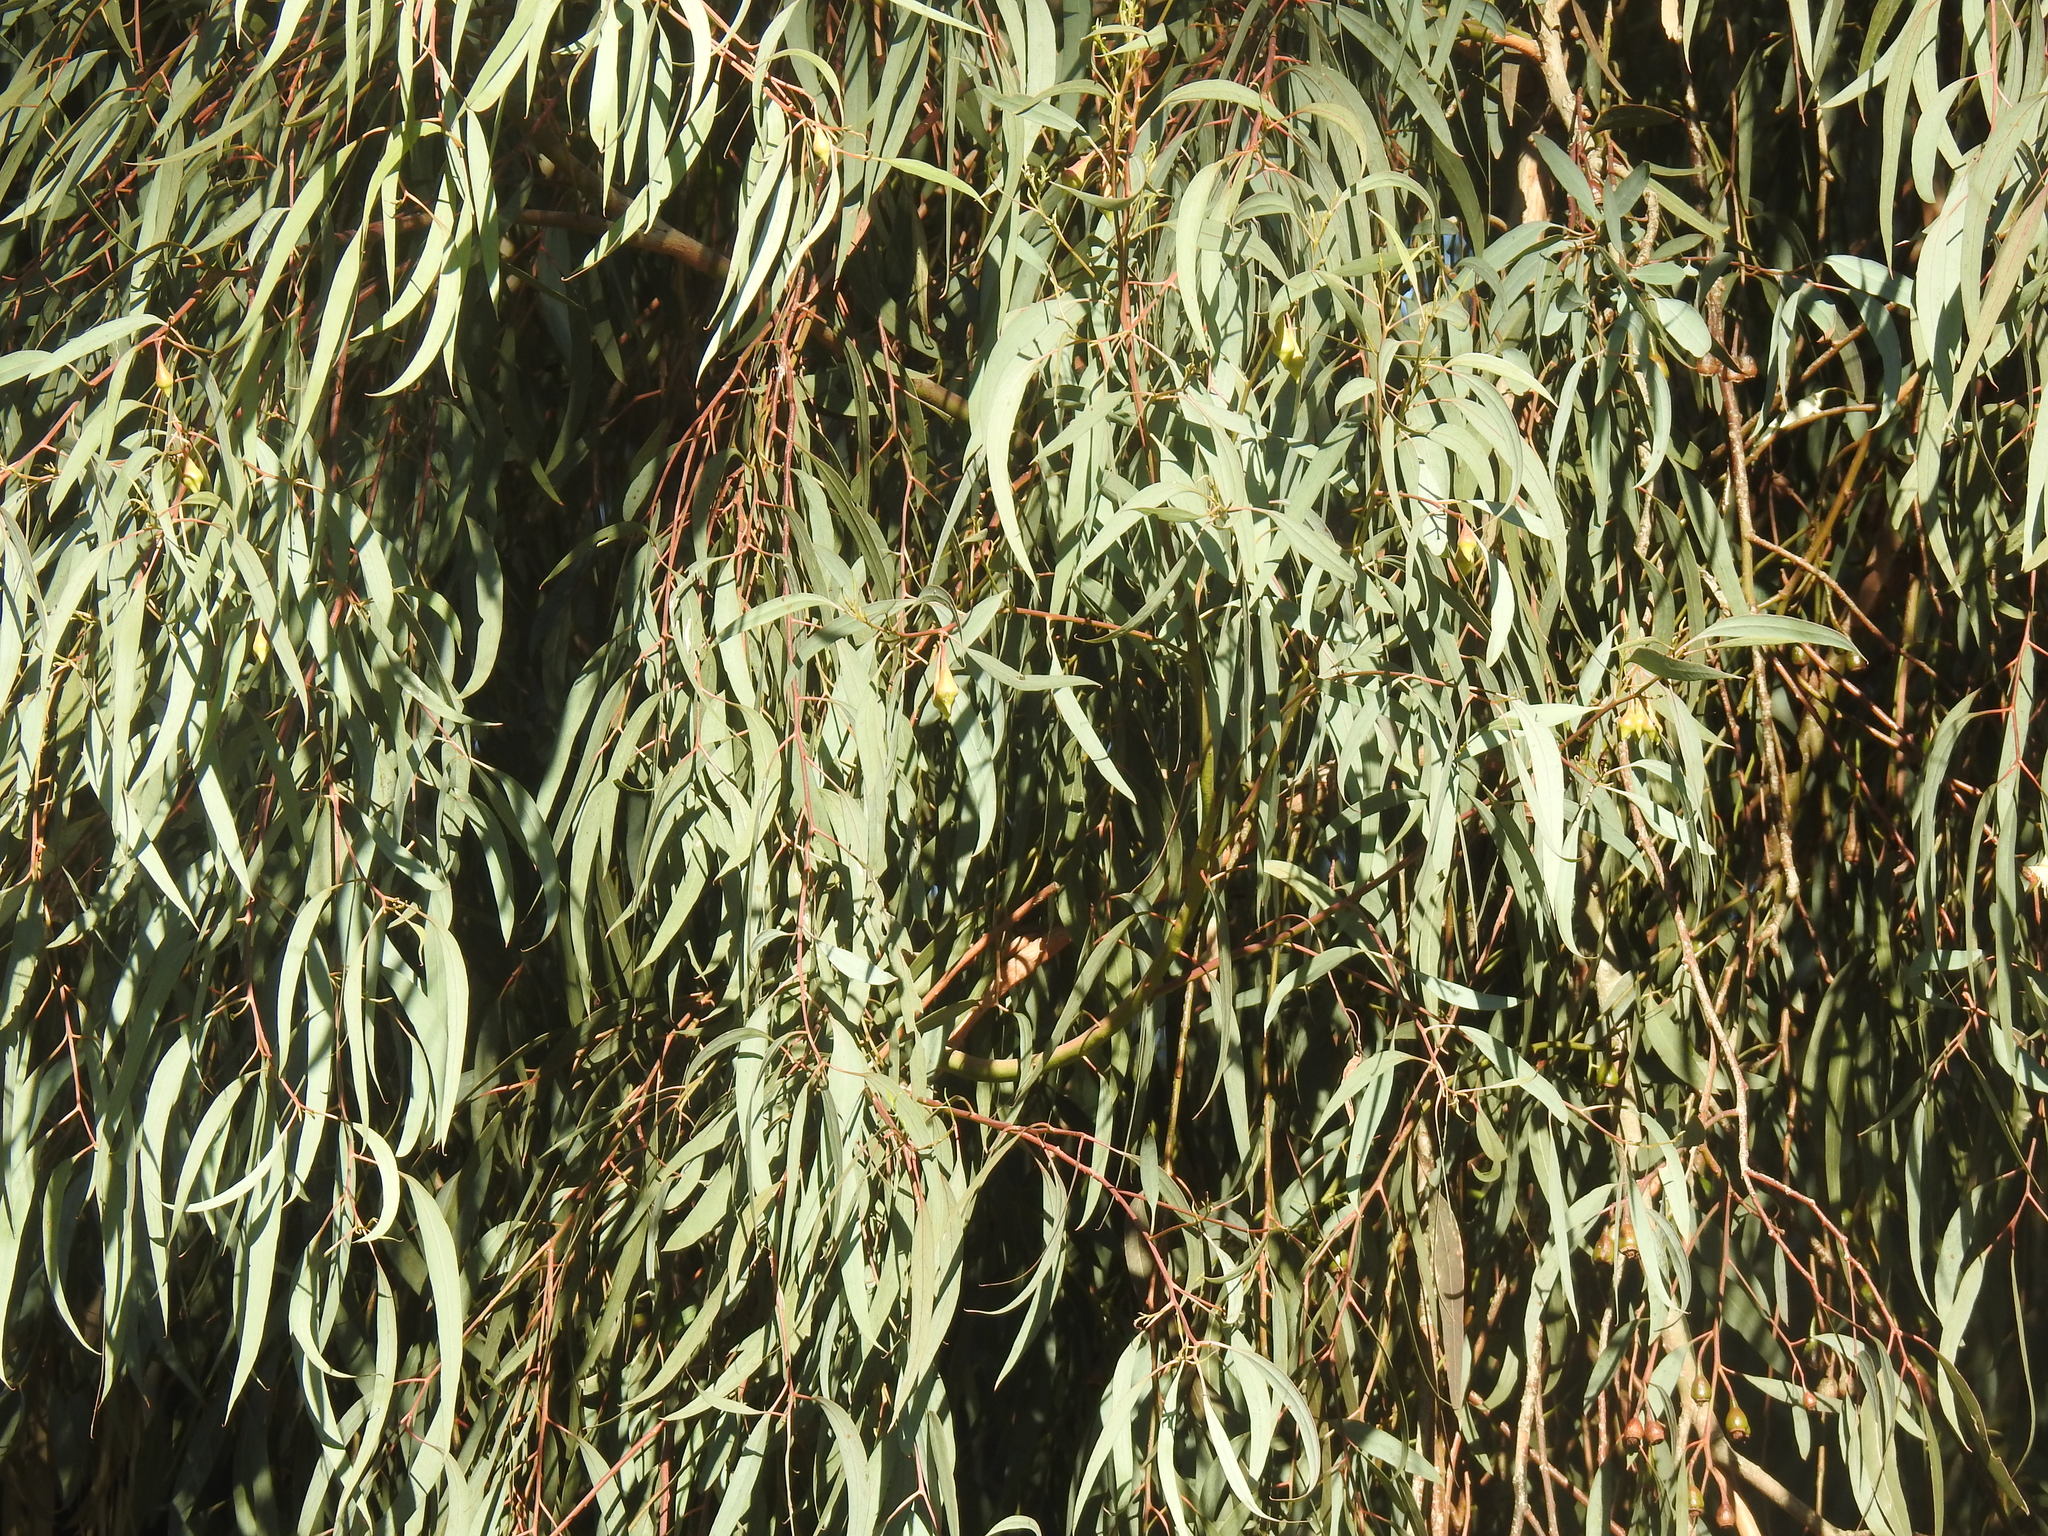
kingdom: Plantae
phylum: Tracheophyta
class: Magnoliopsida
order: Myrtales
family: Myrtaceae
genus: Eucalyptus
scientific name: Eucalyptus tricarpa
